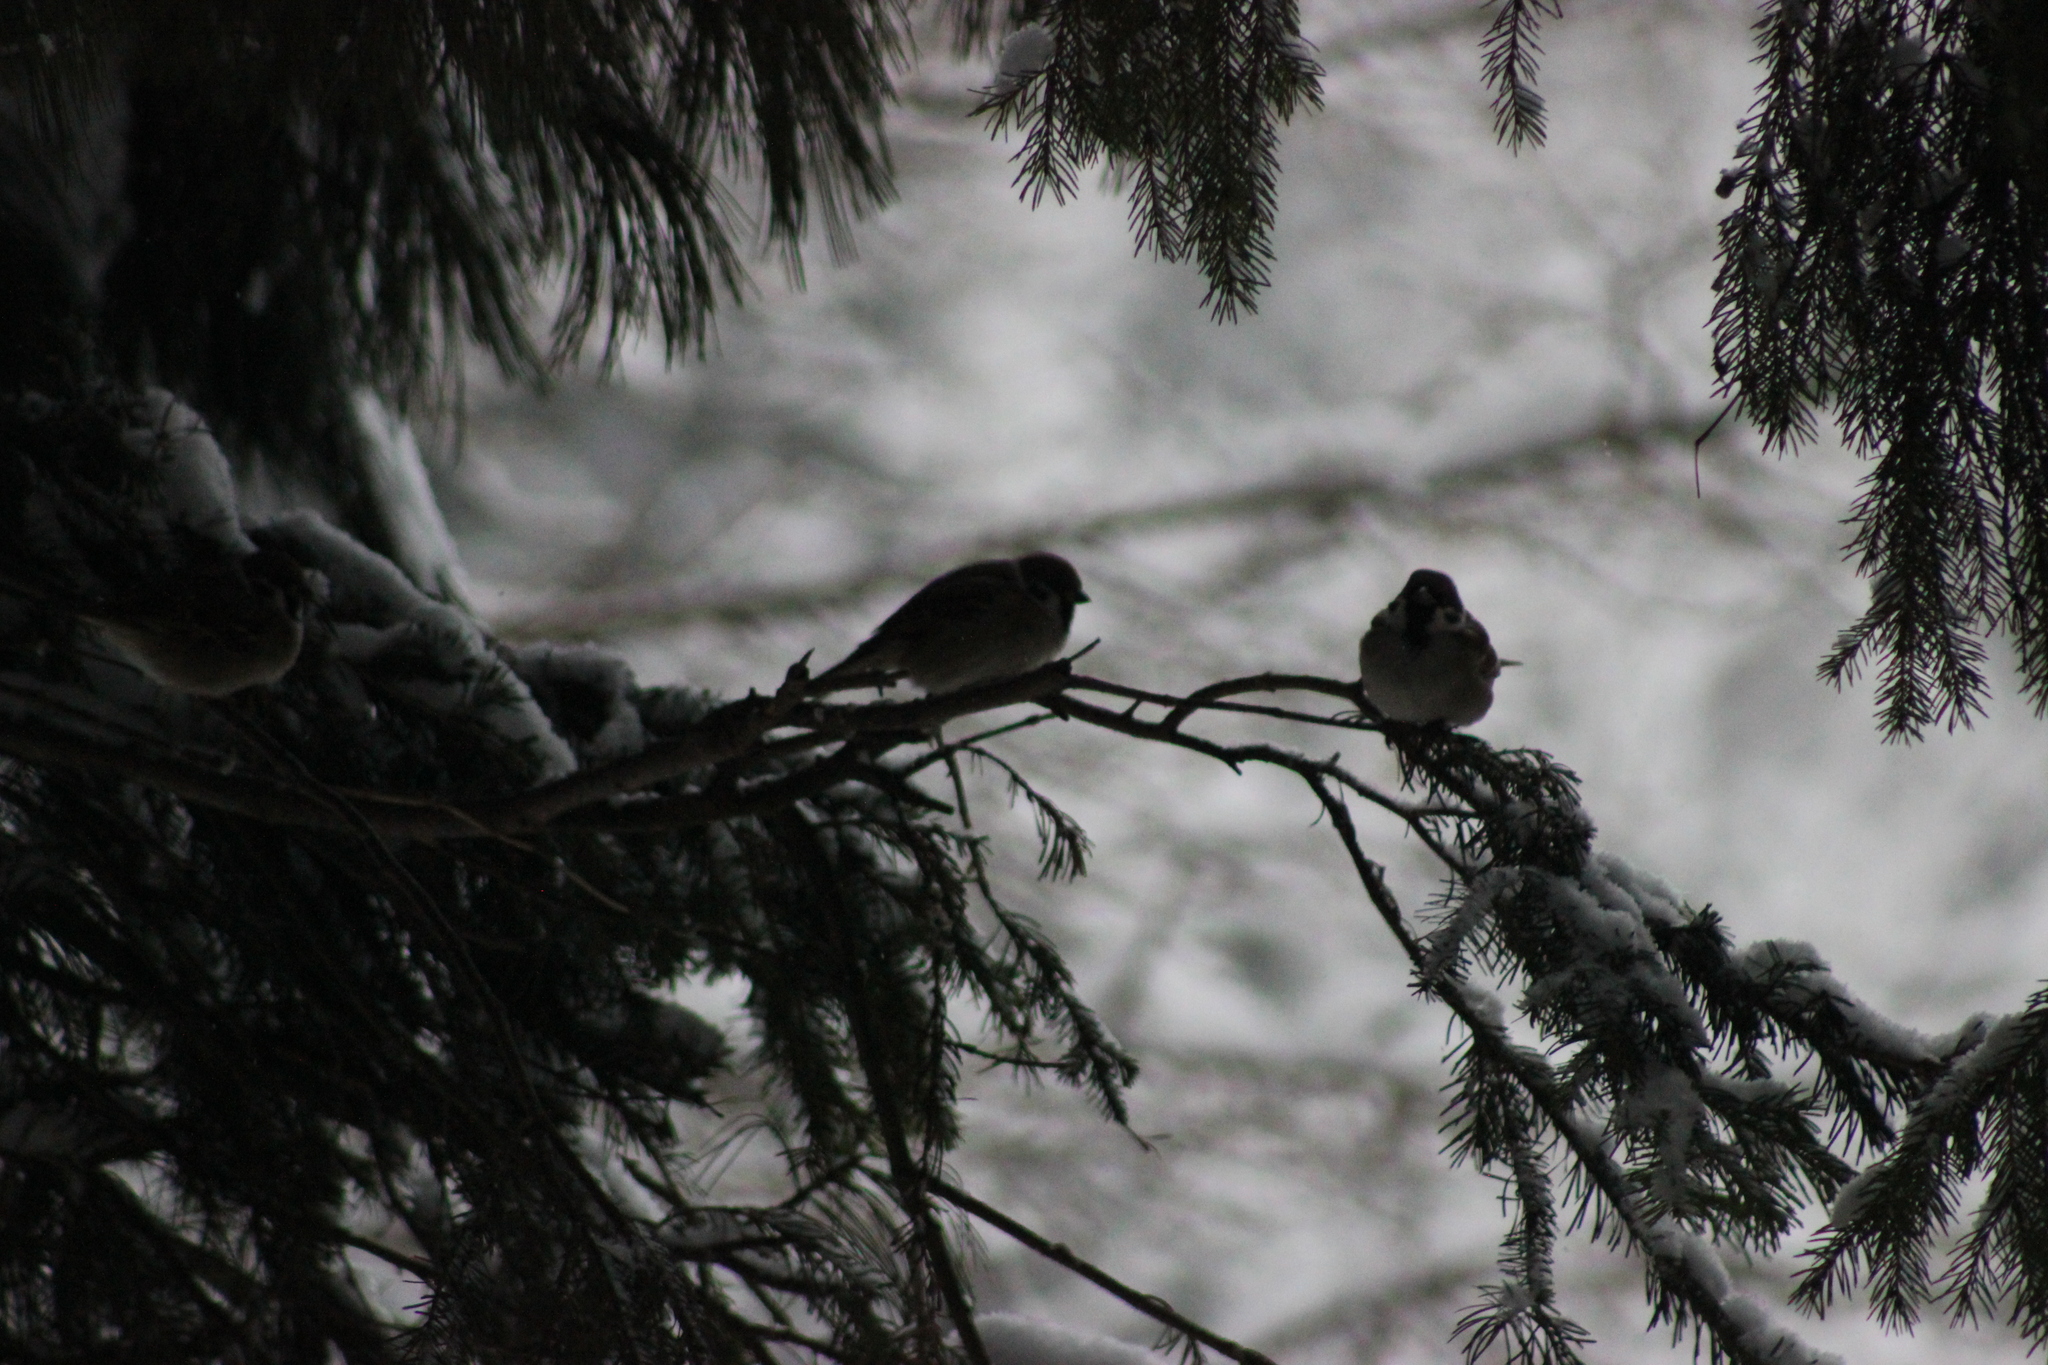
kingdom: Animalia
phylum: Chordata
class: Aves
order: Passeriformes
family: Passeridae
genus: Passer
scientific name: Passer montanus
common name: Eurasian tree sparrow
